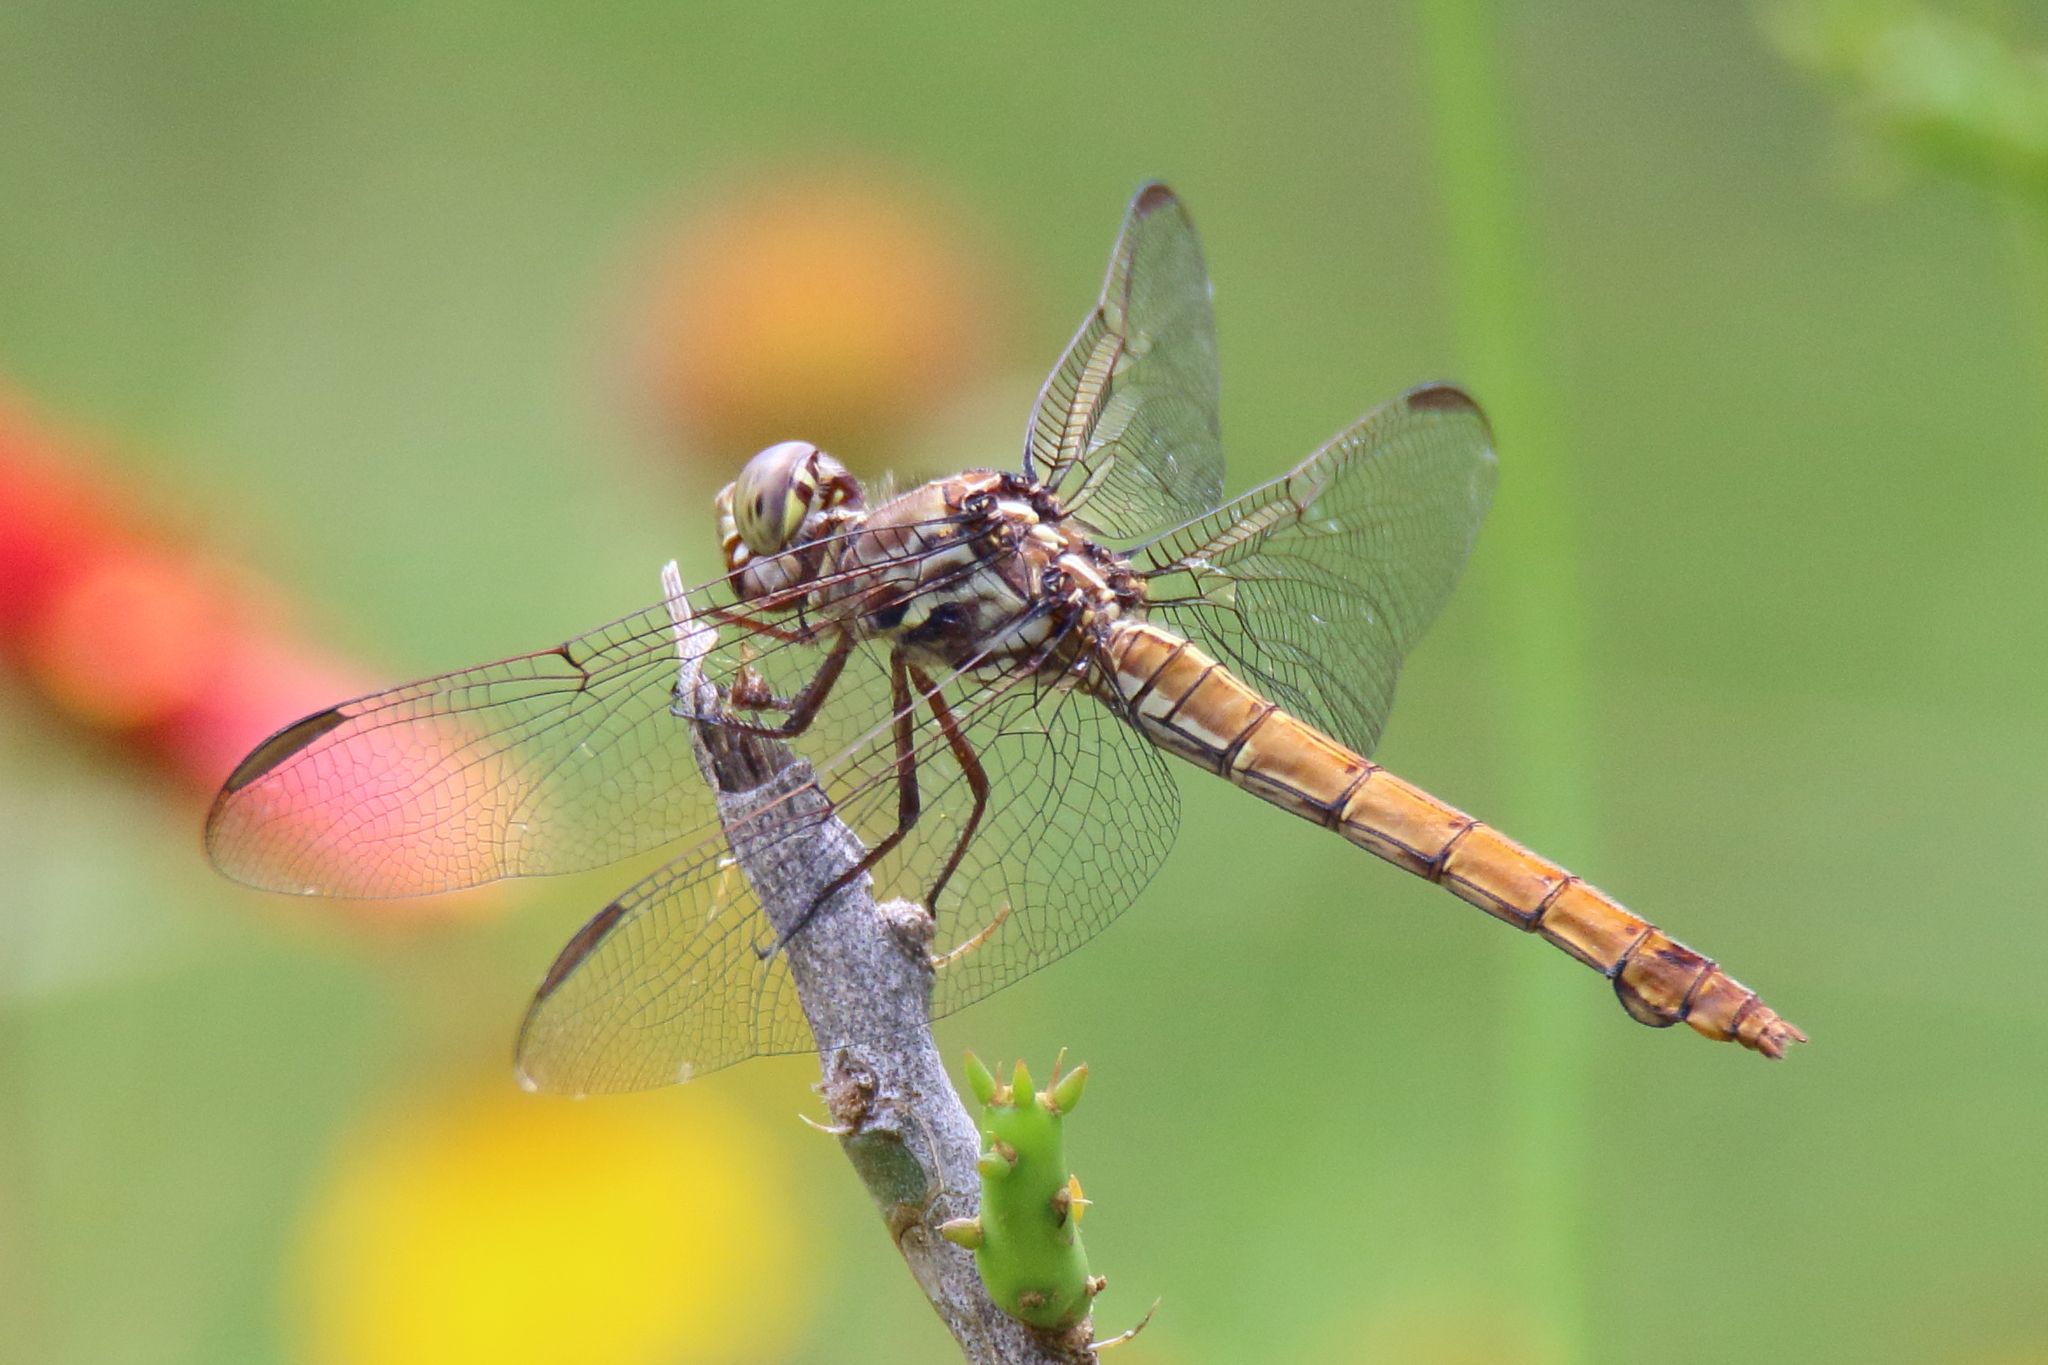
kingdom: Animalia
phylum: Arthropoda
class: Insecta
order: Odonata
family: Libellulidae
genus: Orthemis
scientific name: Orthemis ferruginea
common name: Roseate skimmer
